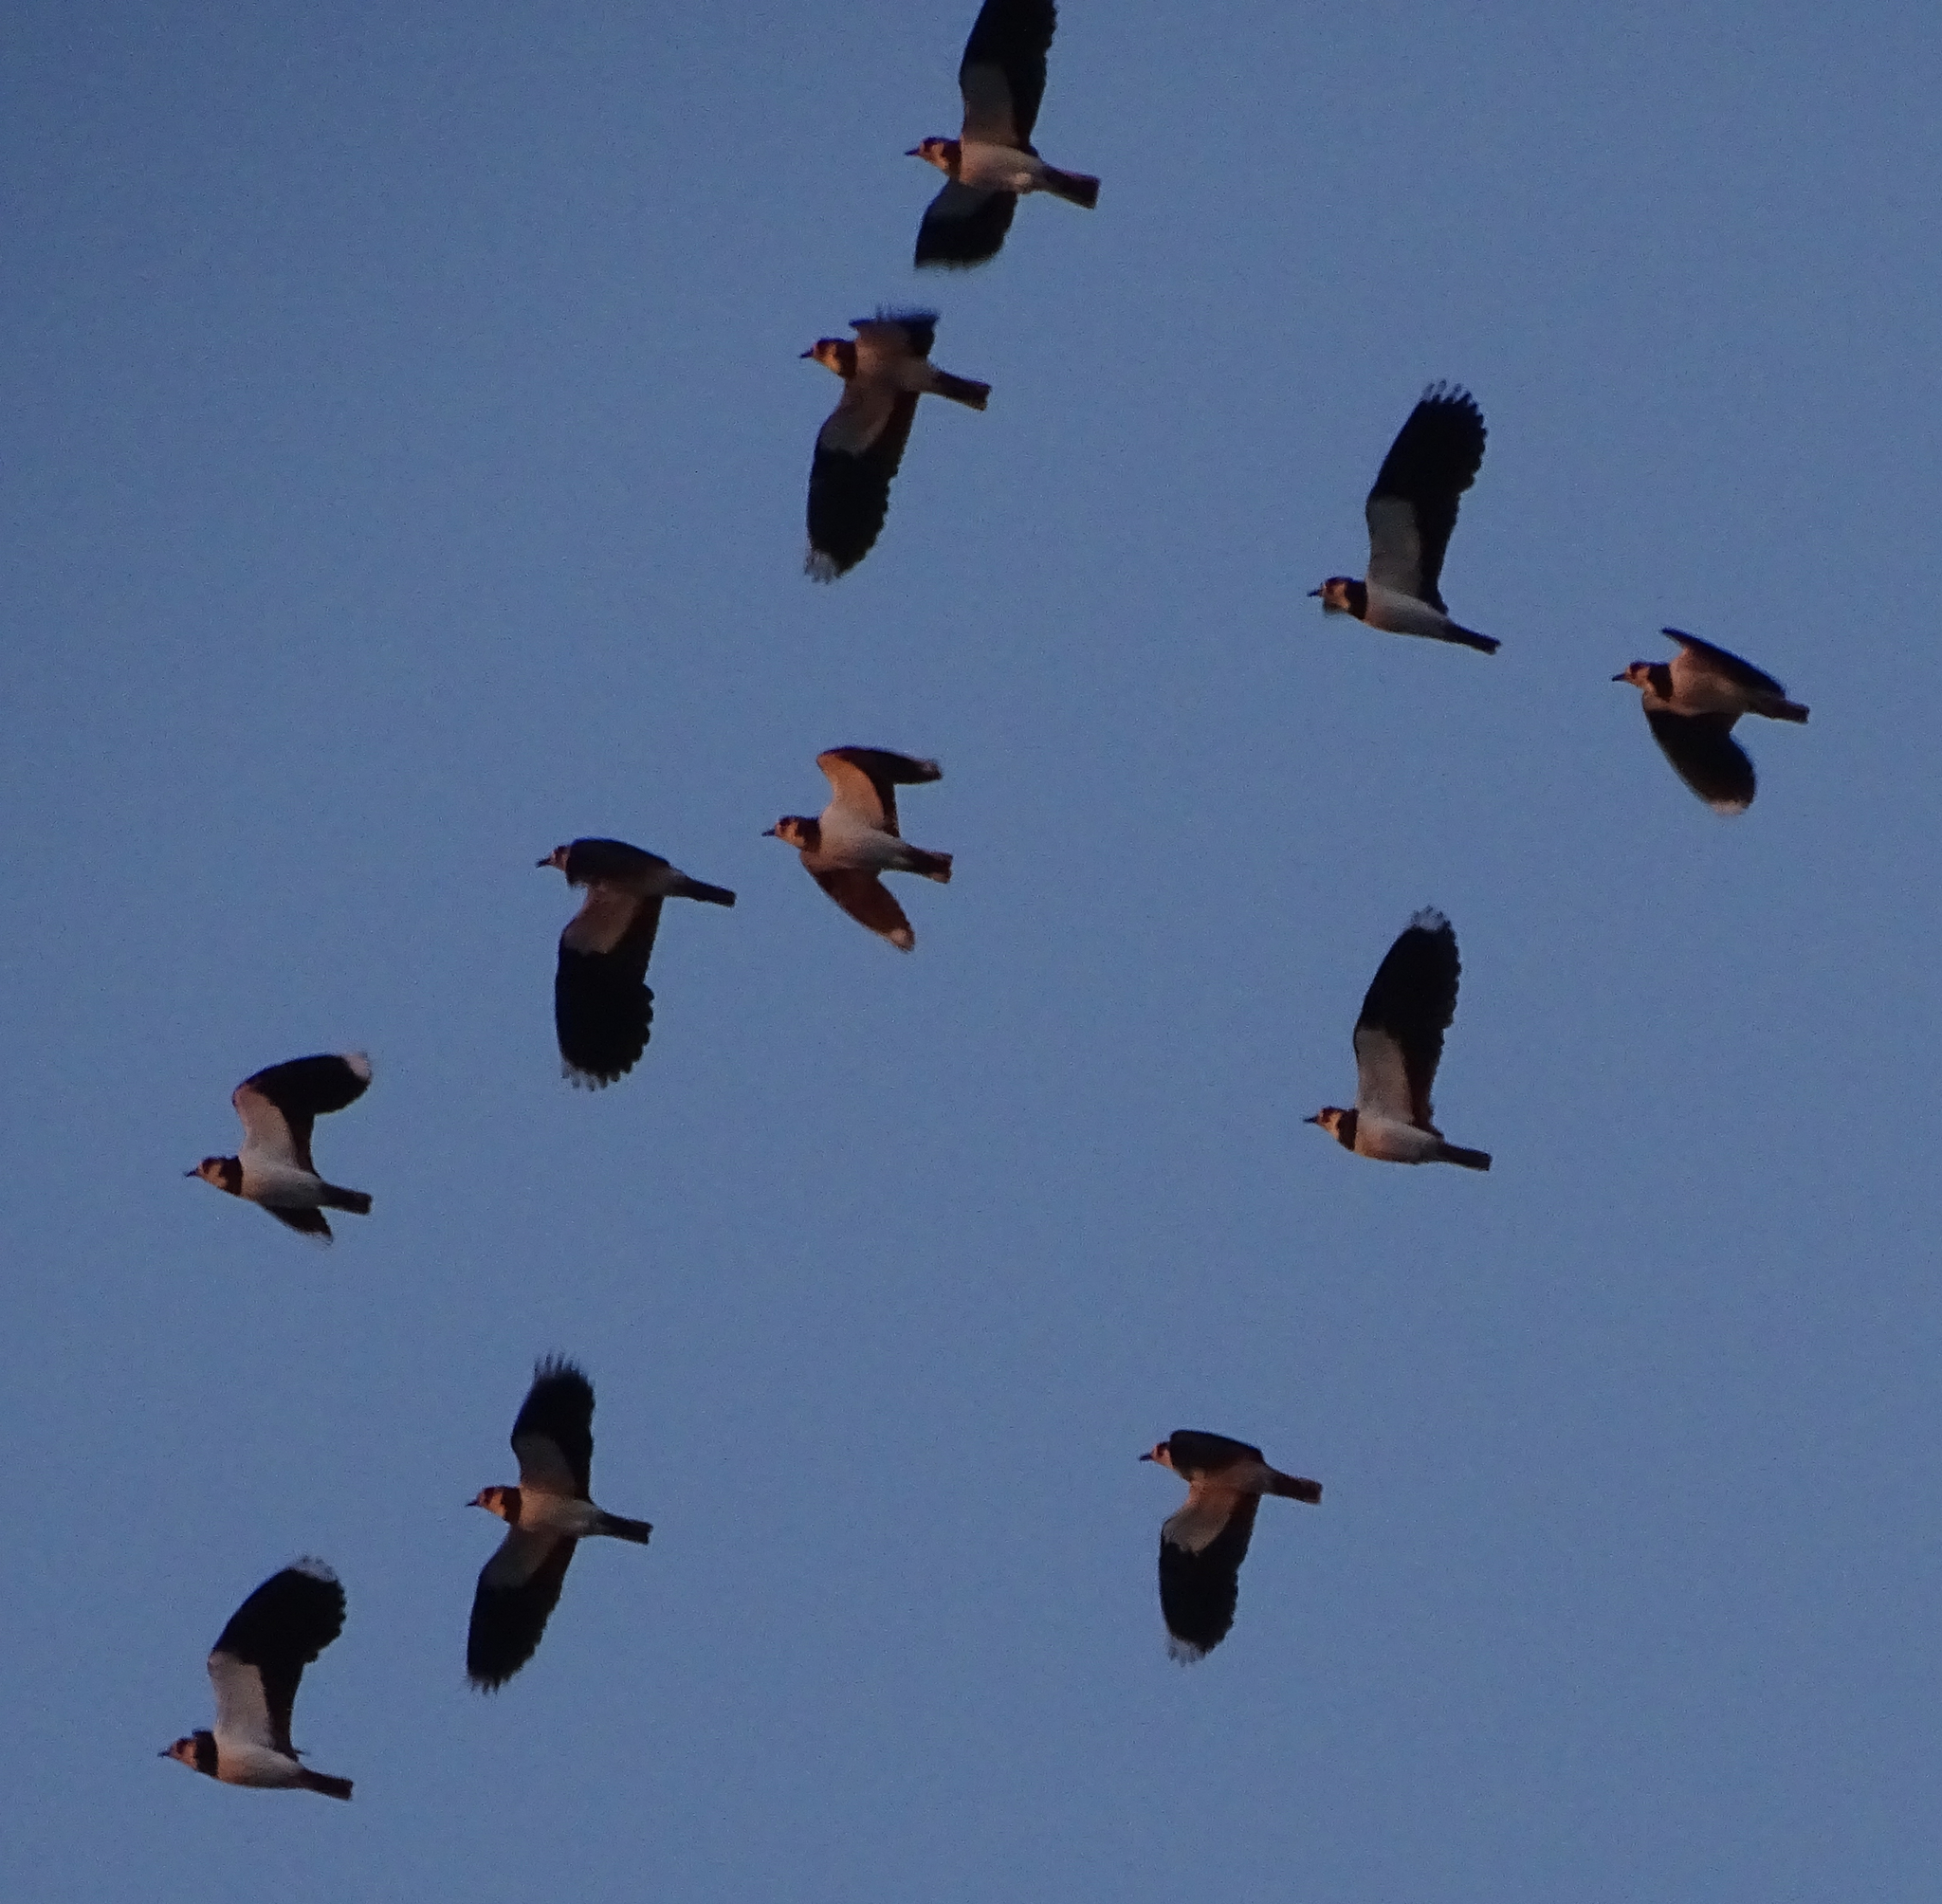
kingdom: Animalia
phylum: Chordata
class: Aves
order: Charadriiformes
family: Charadriidae
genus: Vanellus
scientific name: Vanellus vanellus
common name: Northern lapwing
